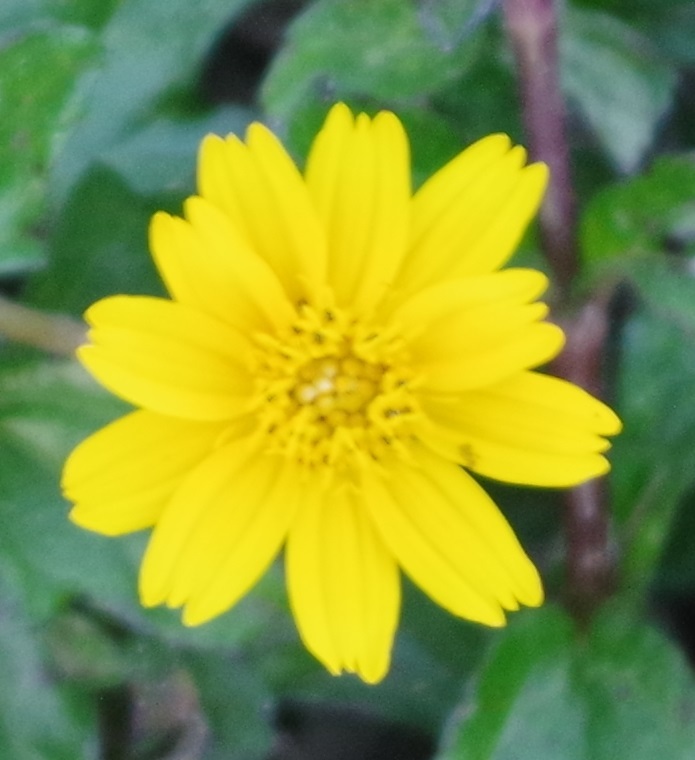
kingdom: Plantae
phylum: Tracheophyta
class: Magnoliopsida
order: Asterales
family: Asteraceae
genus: Sphagneticola
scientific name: Sphagneticola trilobata
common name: Bay biscayne creeping-oxeye
